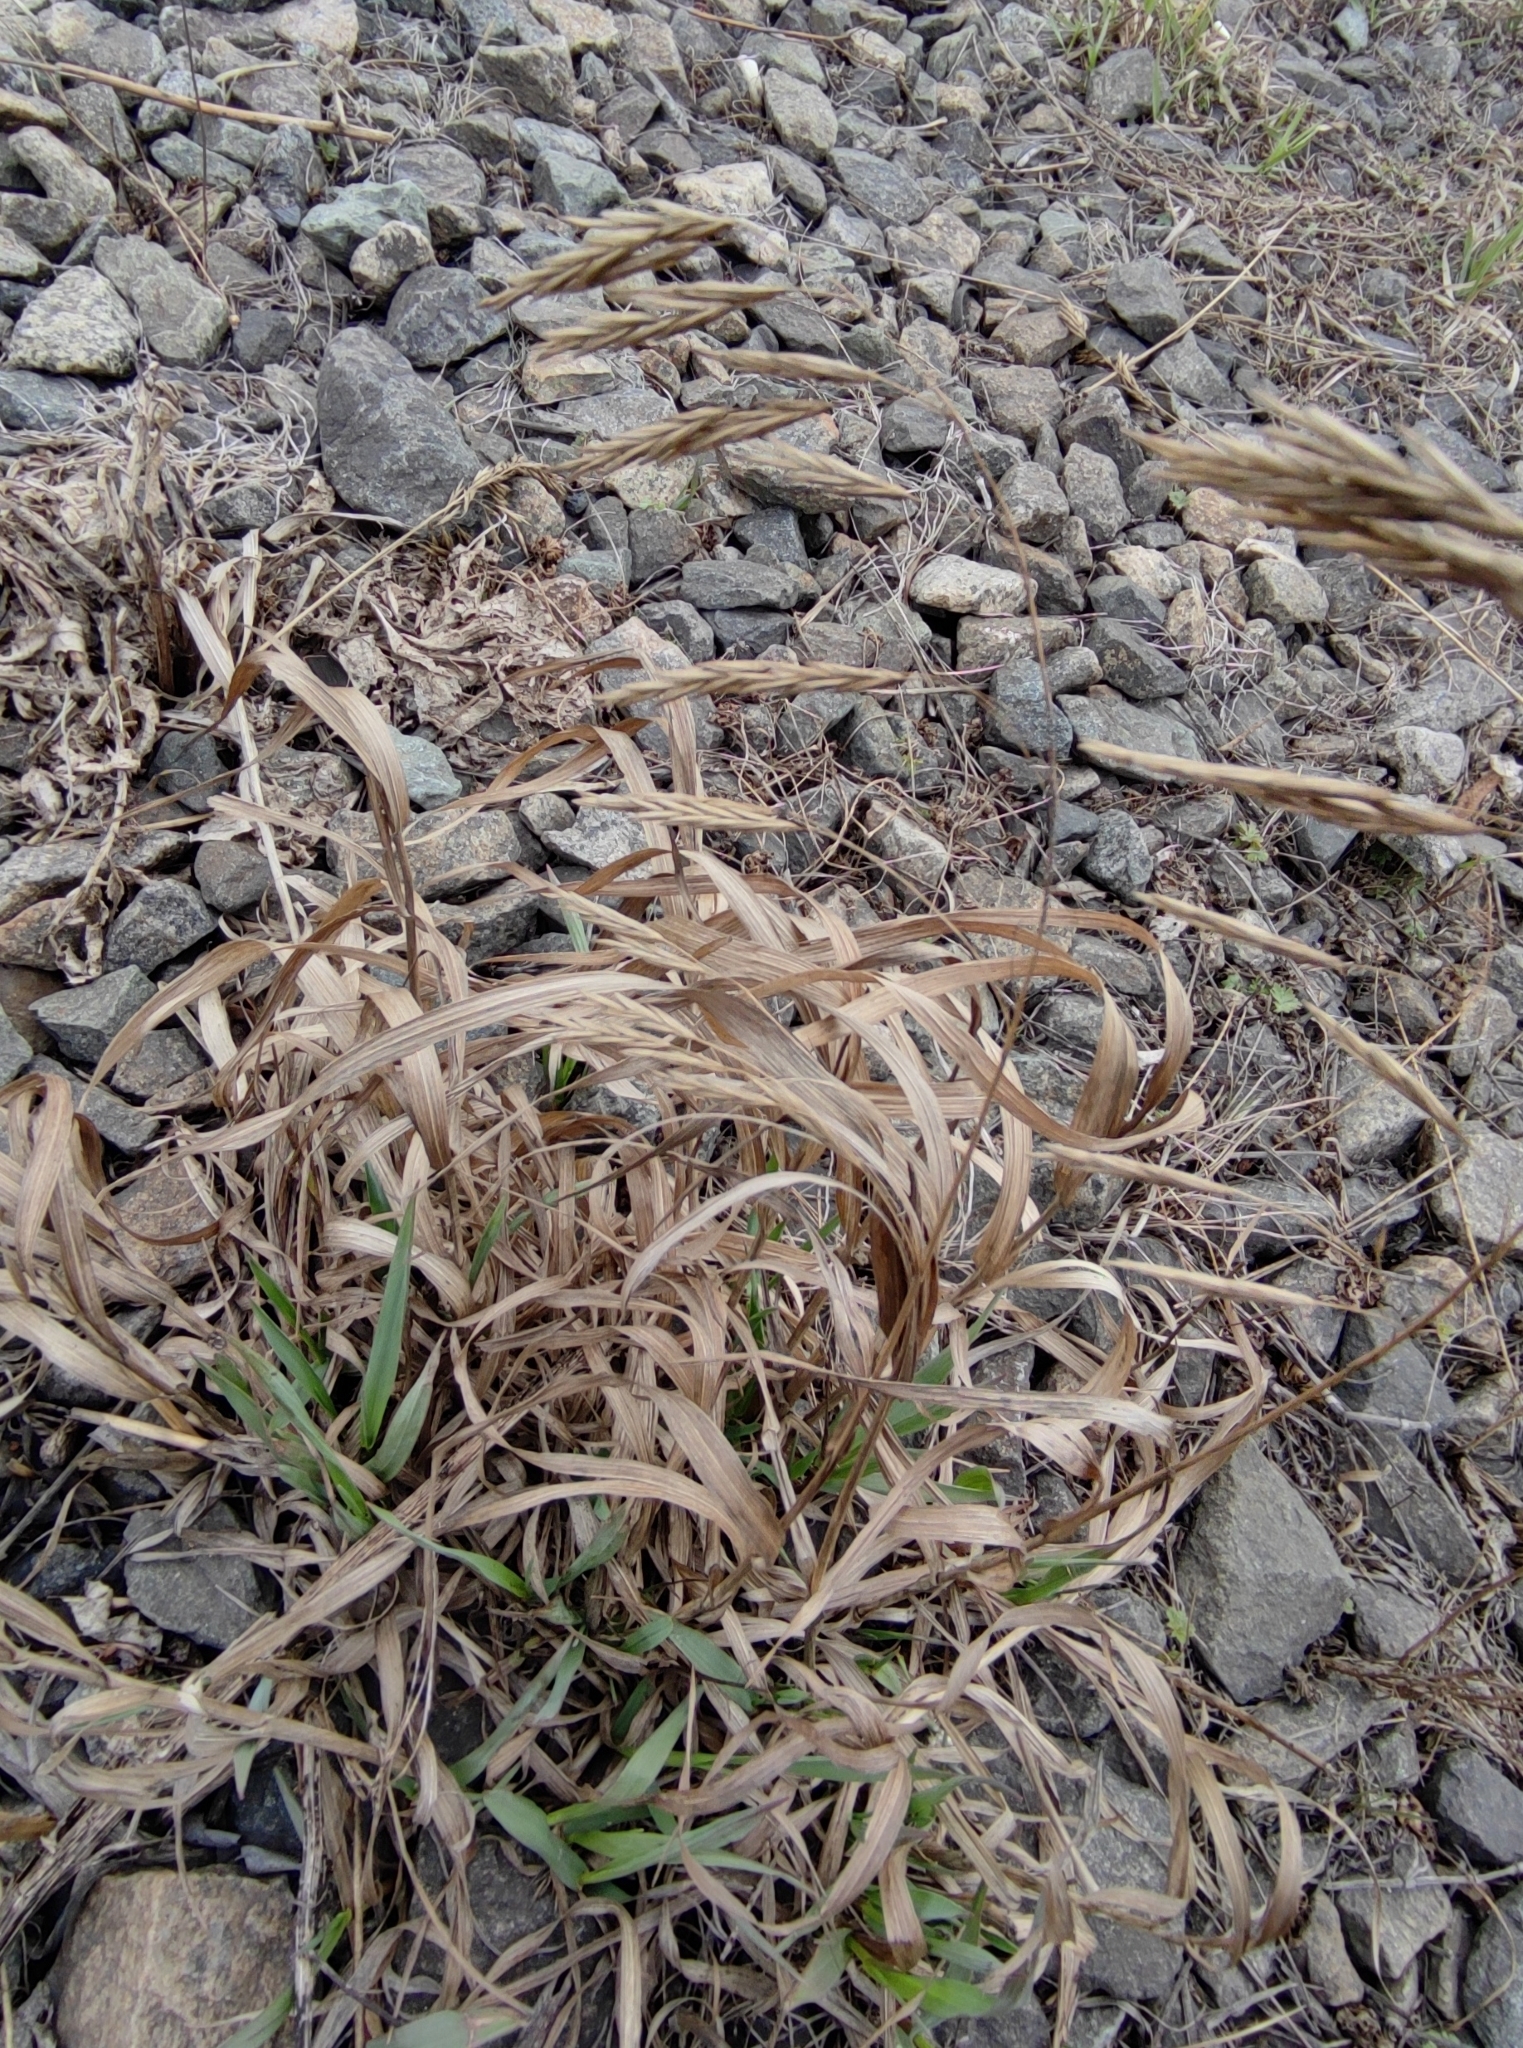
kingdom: Plantae
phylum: Tracheophyta
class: Liliopsida
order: Poales
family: Poaceae
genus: Bromus
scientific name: Bromus inermis
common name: Smooth brome
